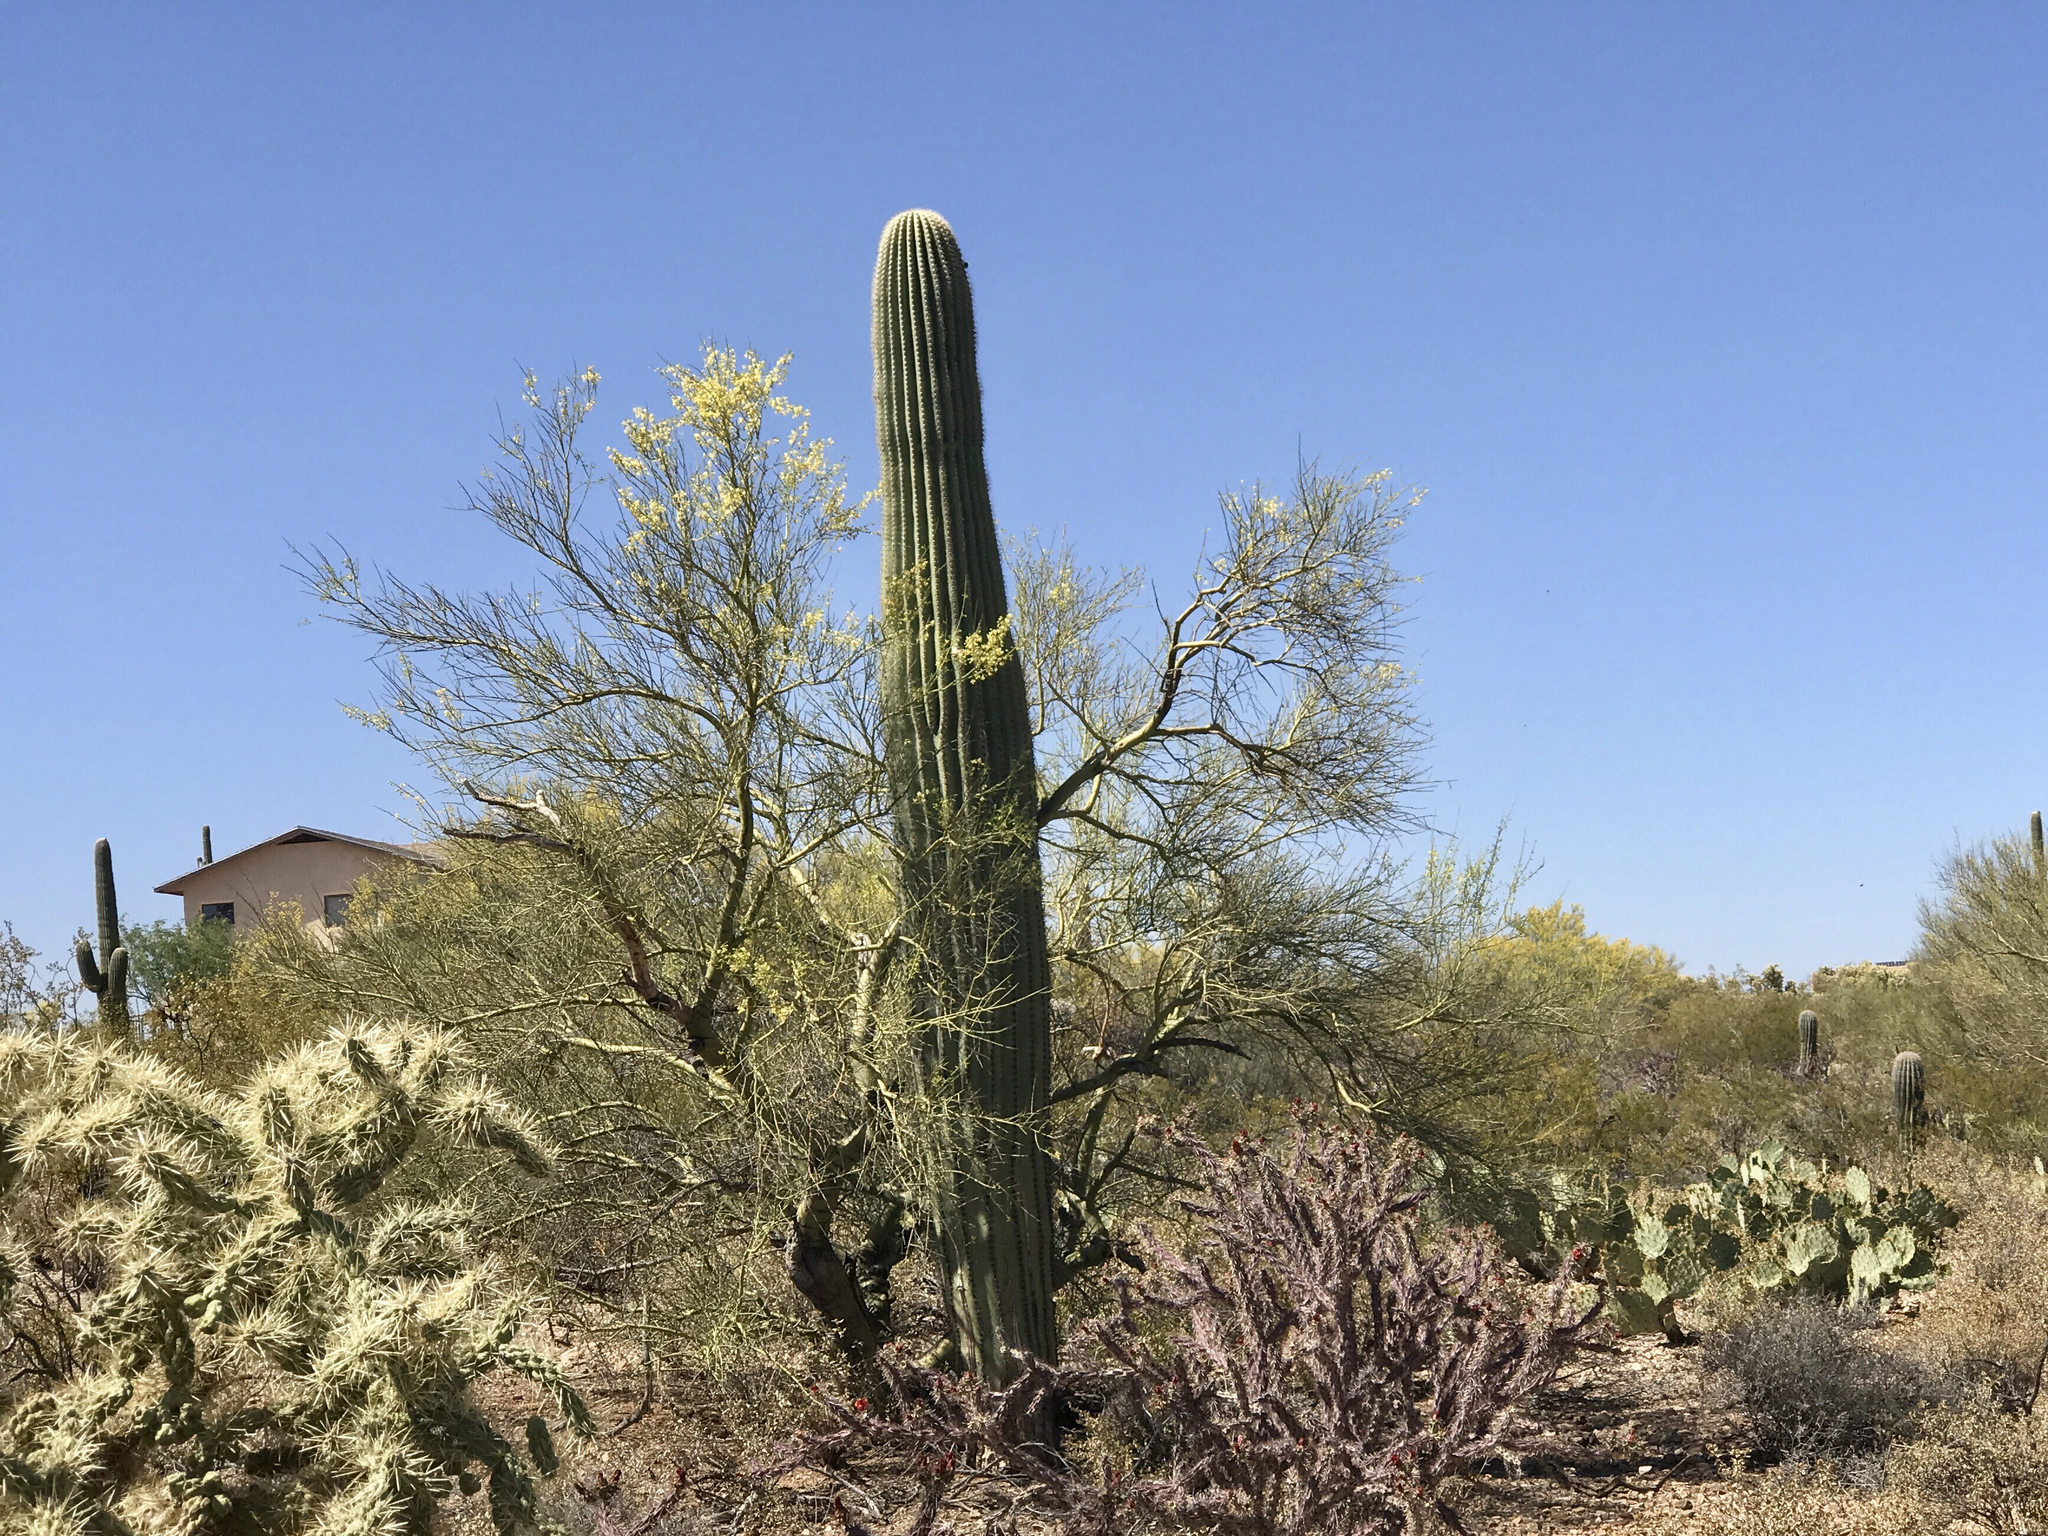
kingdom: Plantae
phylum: Tracheophyta
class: Magnoliopsida
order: Caryophyllales
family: Cactaceae
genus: Carnegiea
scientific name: Carnegiea gigantea
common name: Saguaro
